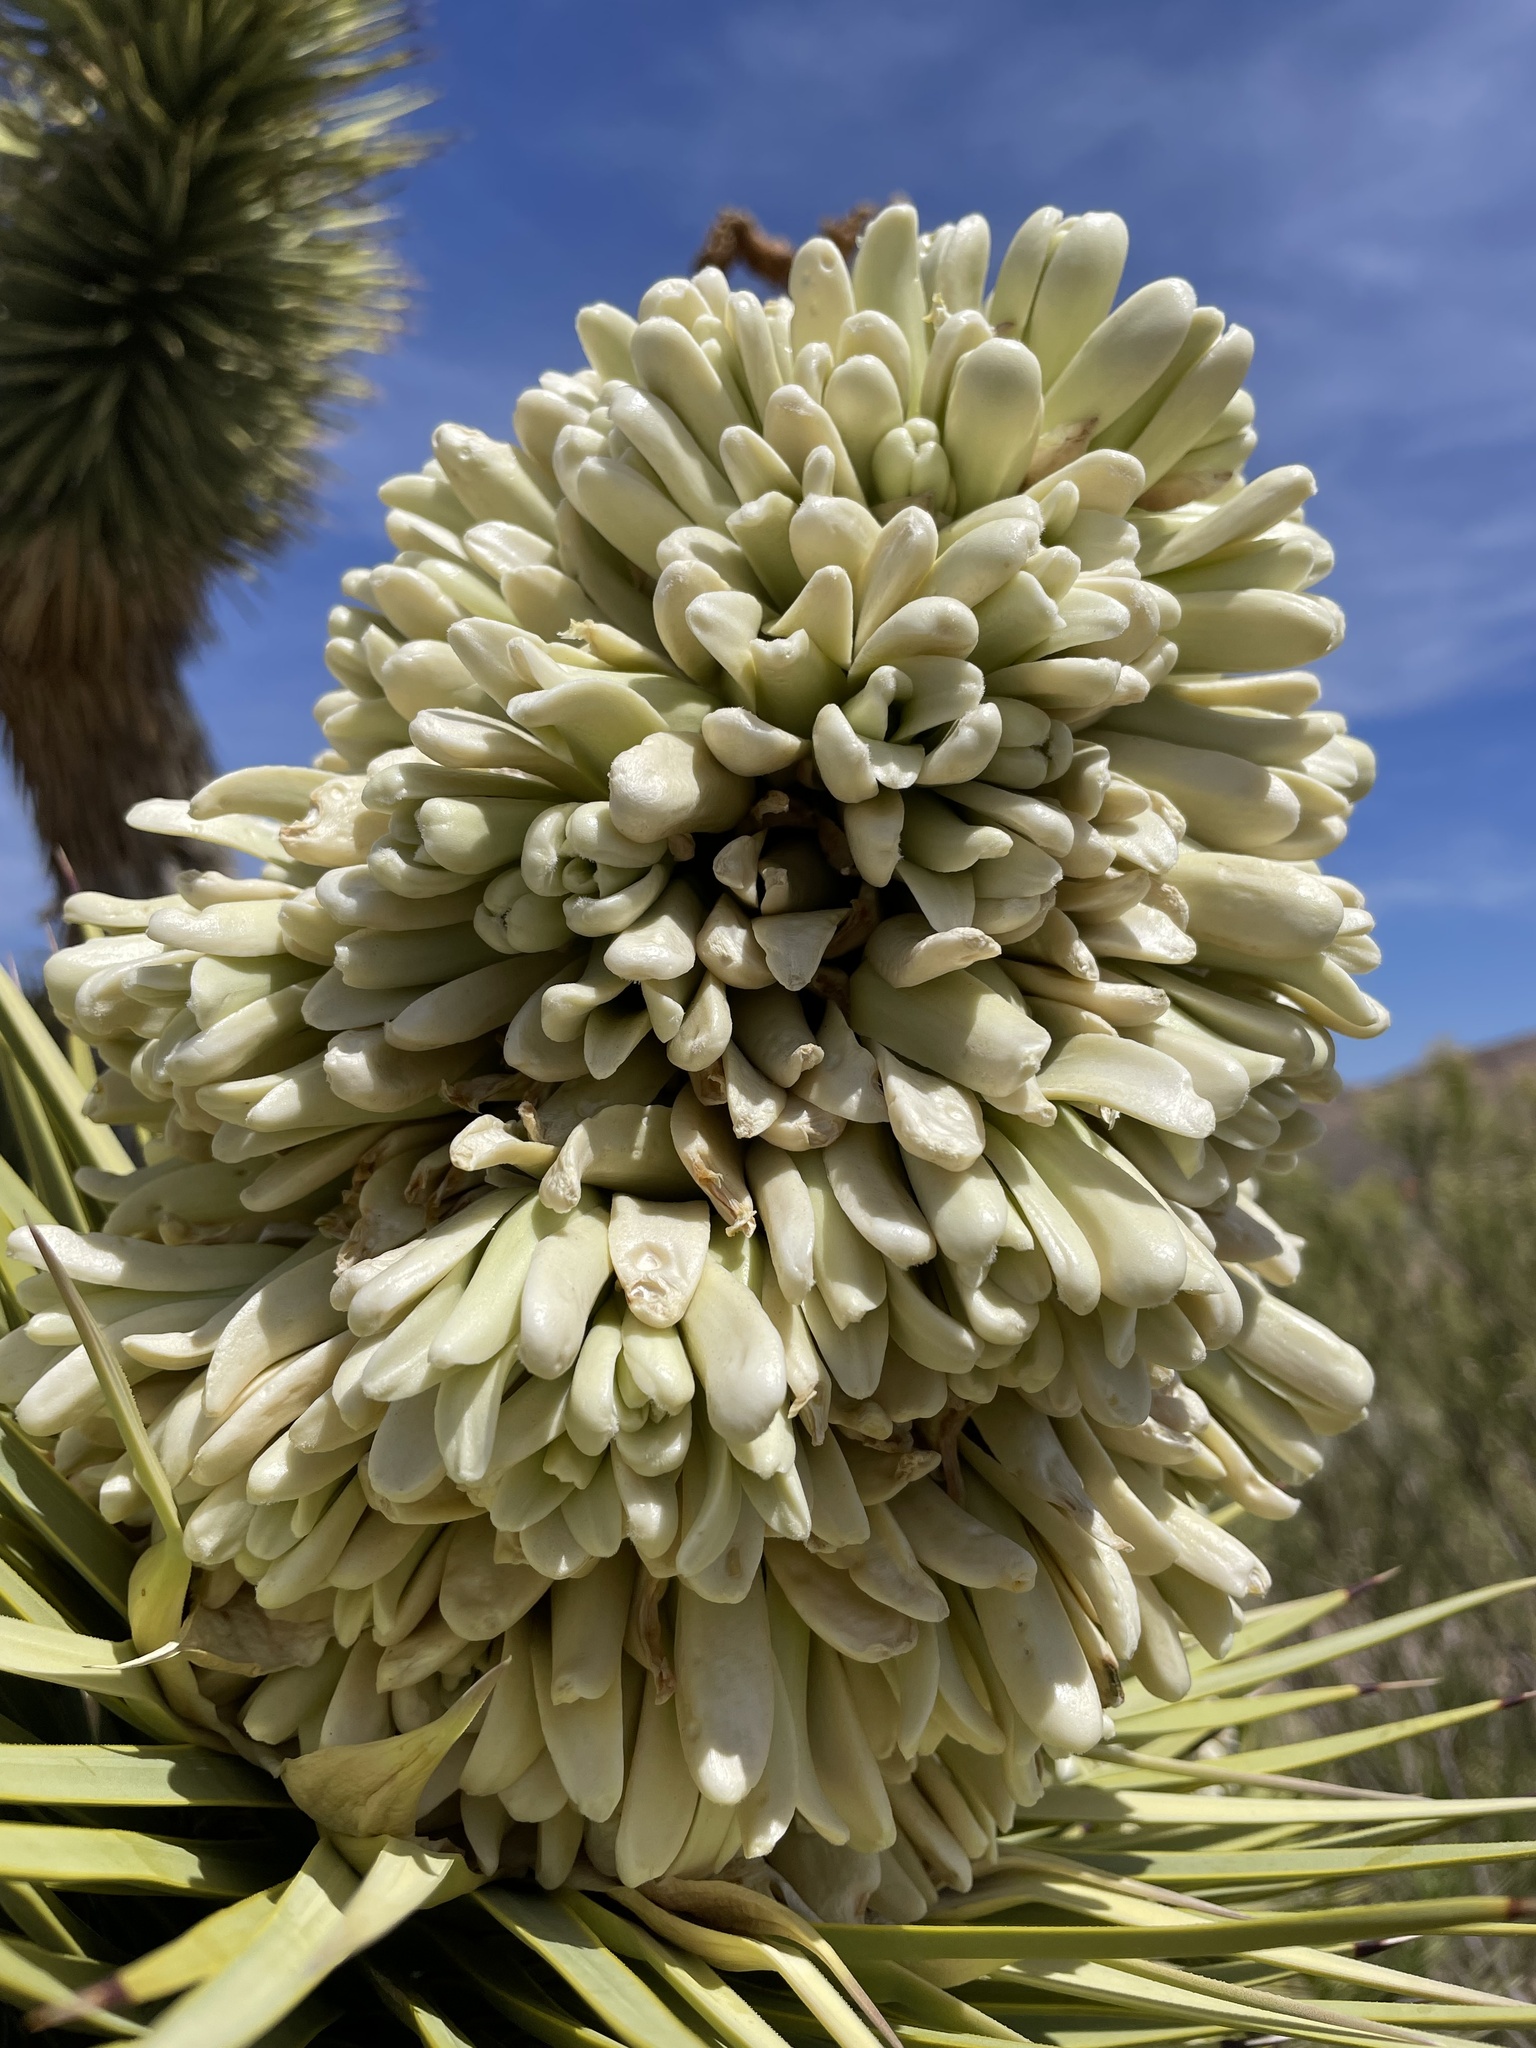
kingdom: Plantae
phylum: Tracheophyta
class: Liliopsida
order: Asparagales
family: Asparagaceae
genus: Yucca
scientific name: Yucca brevifolia
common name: Joshua tree
